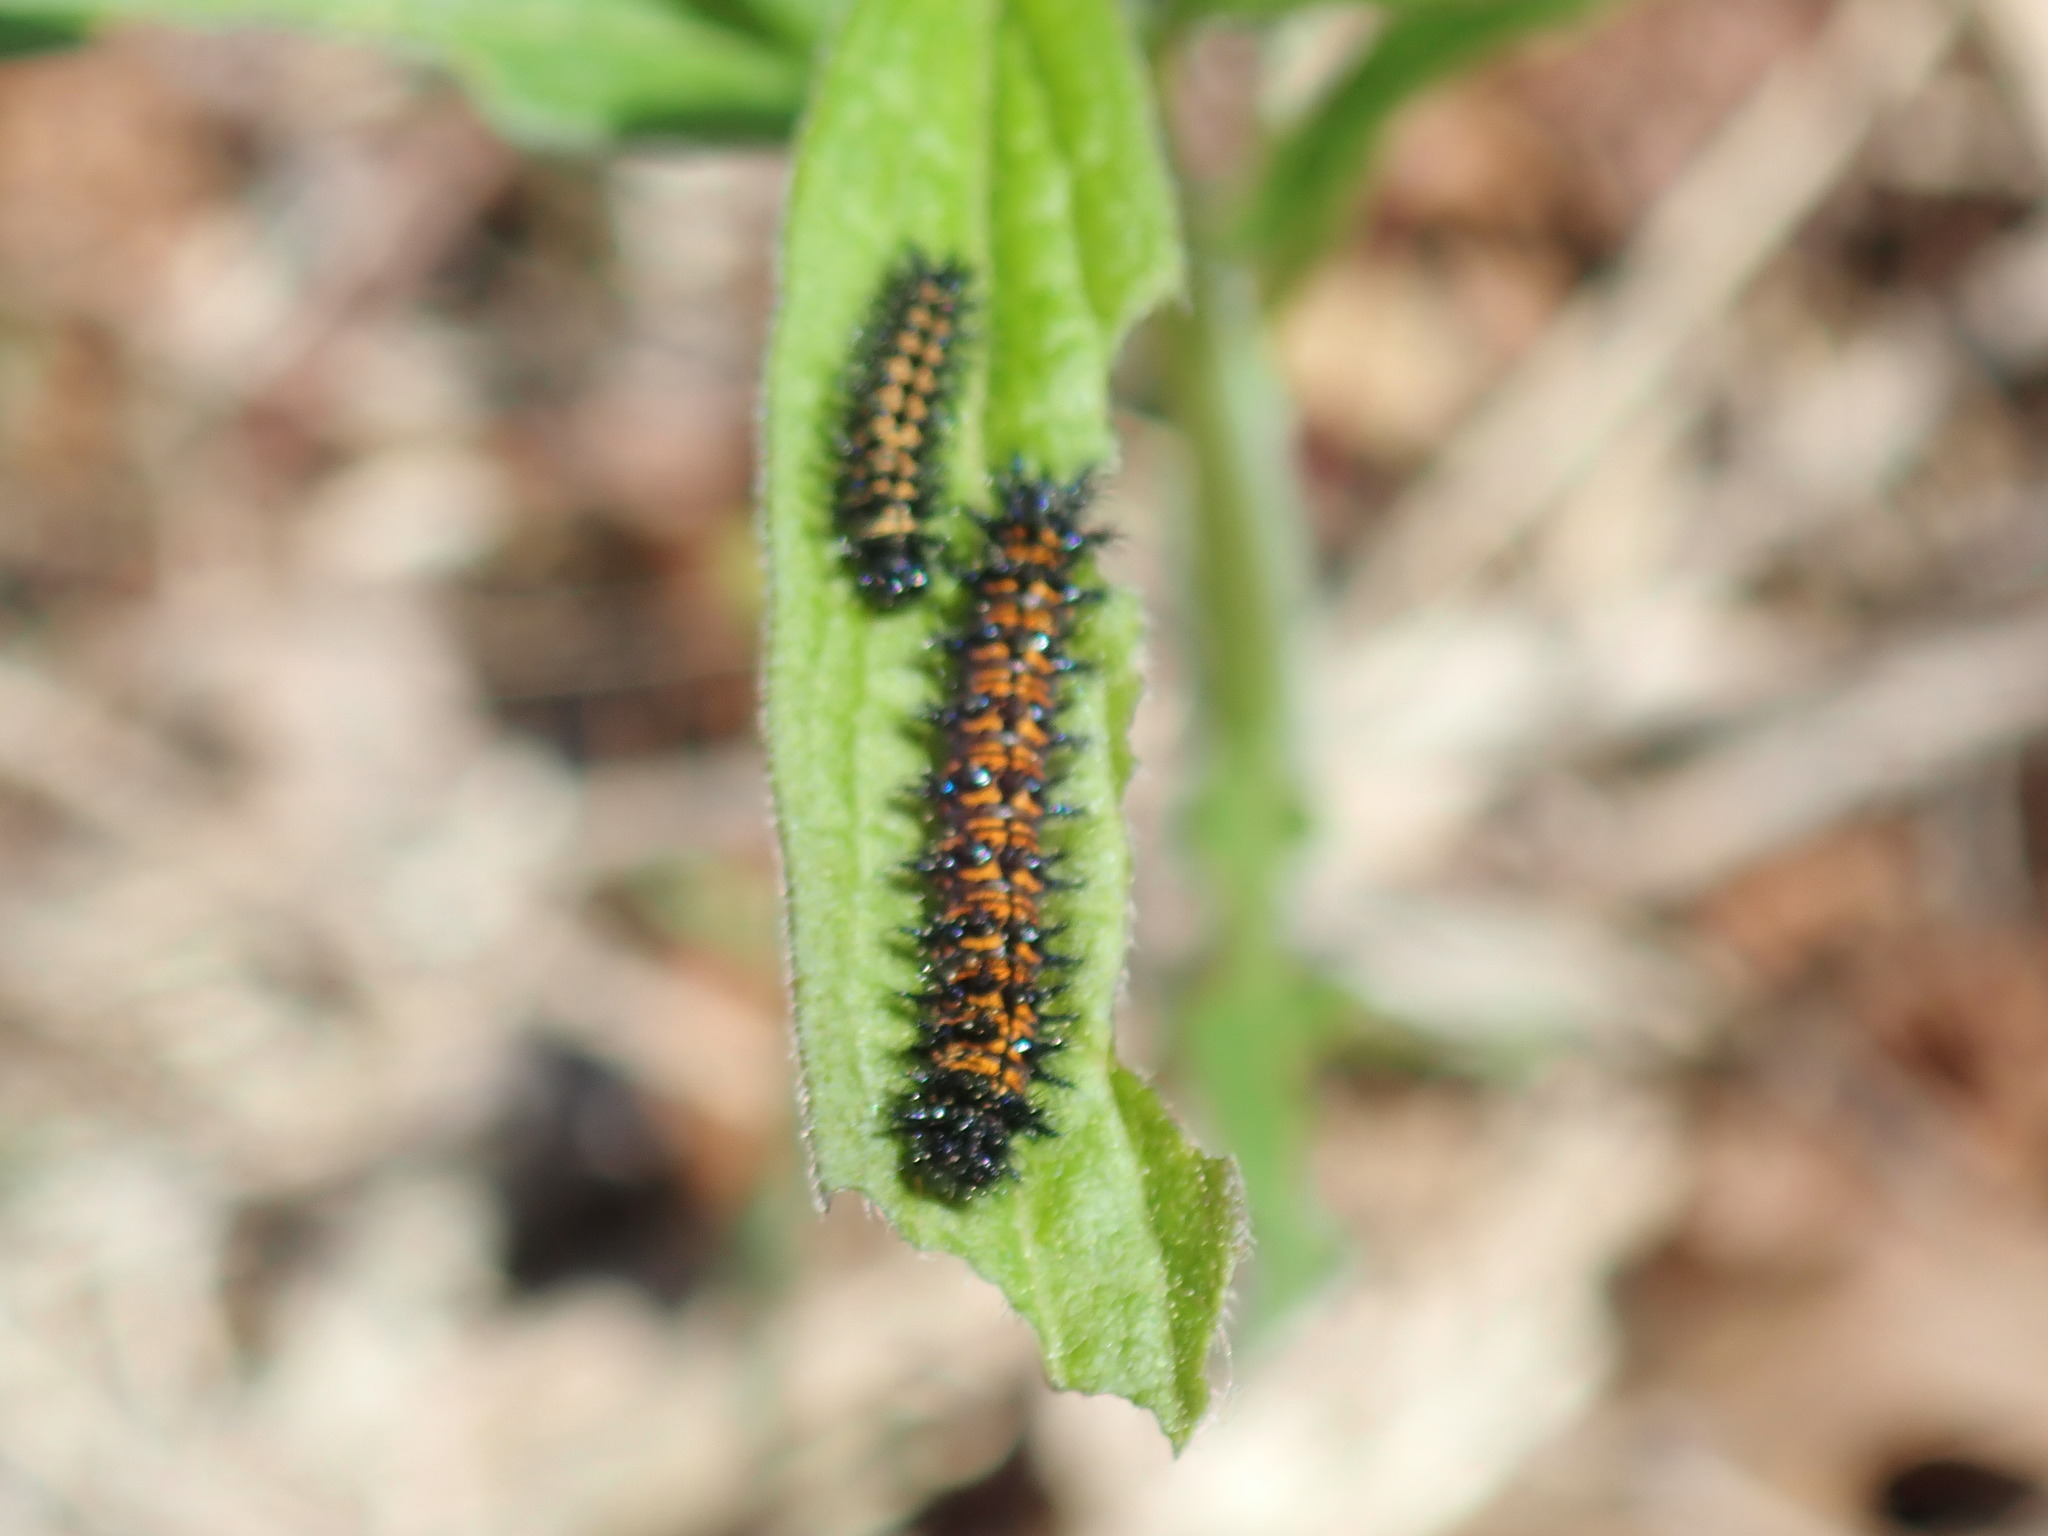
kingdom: Animalia
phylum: Arthropoda
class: Insecta
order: Lepidoptera
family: Nymphalidae
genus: Chlosyne
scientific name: Chlosyne harrisii
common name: Harris's checkerspot
